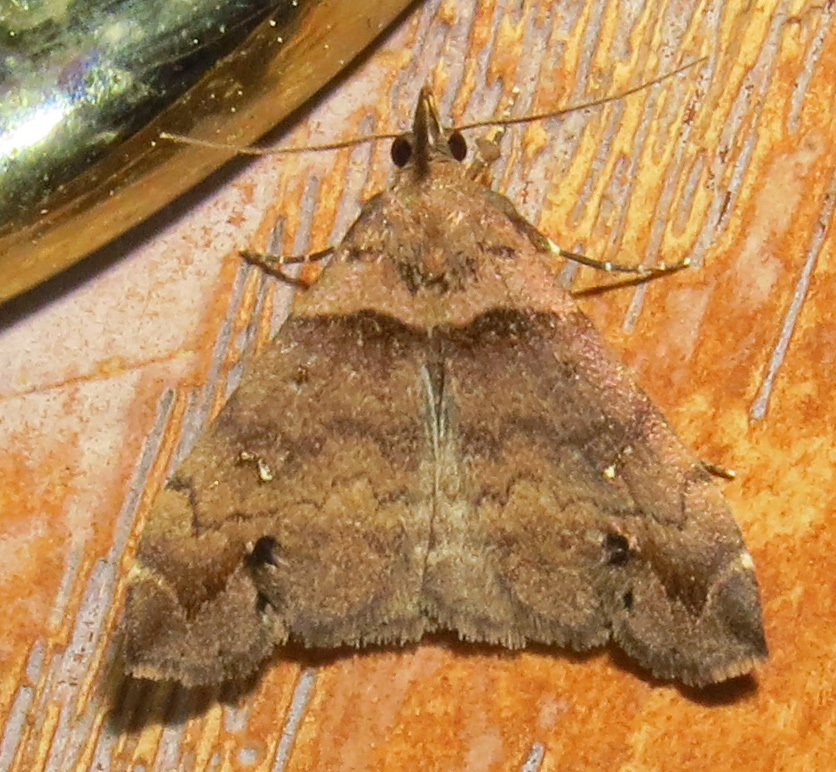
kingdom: Animalia
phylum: Arthropoda
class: Insecta
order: Lepidoptera
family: Erebidae
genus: Lascoria
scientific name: Lascoria ambigualis
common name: Ambiguous moth
